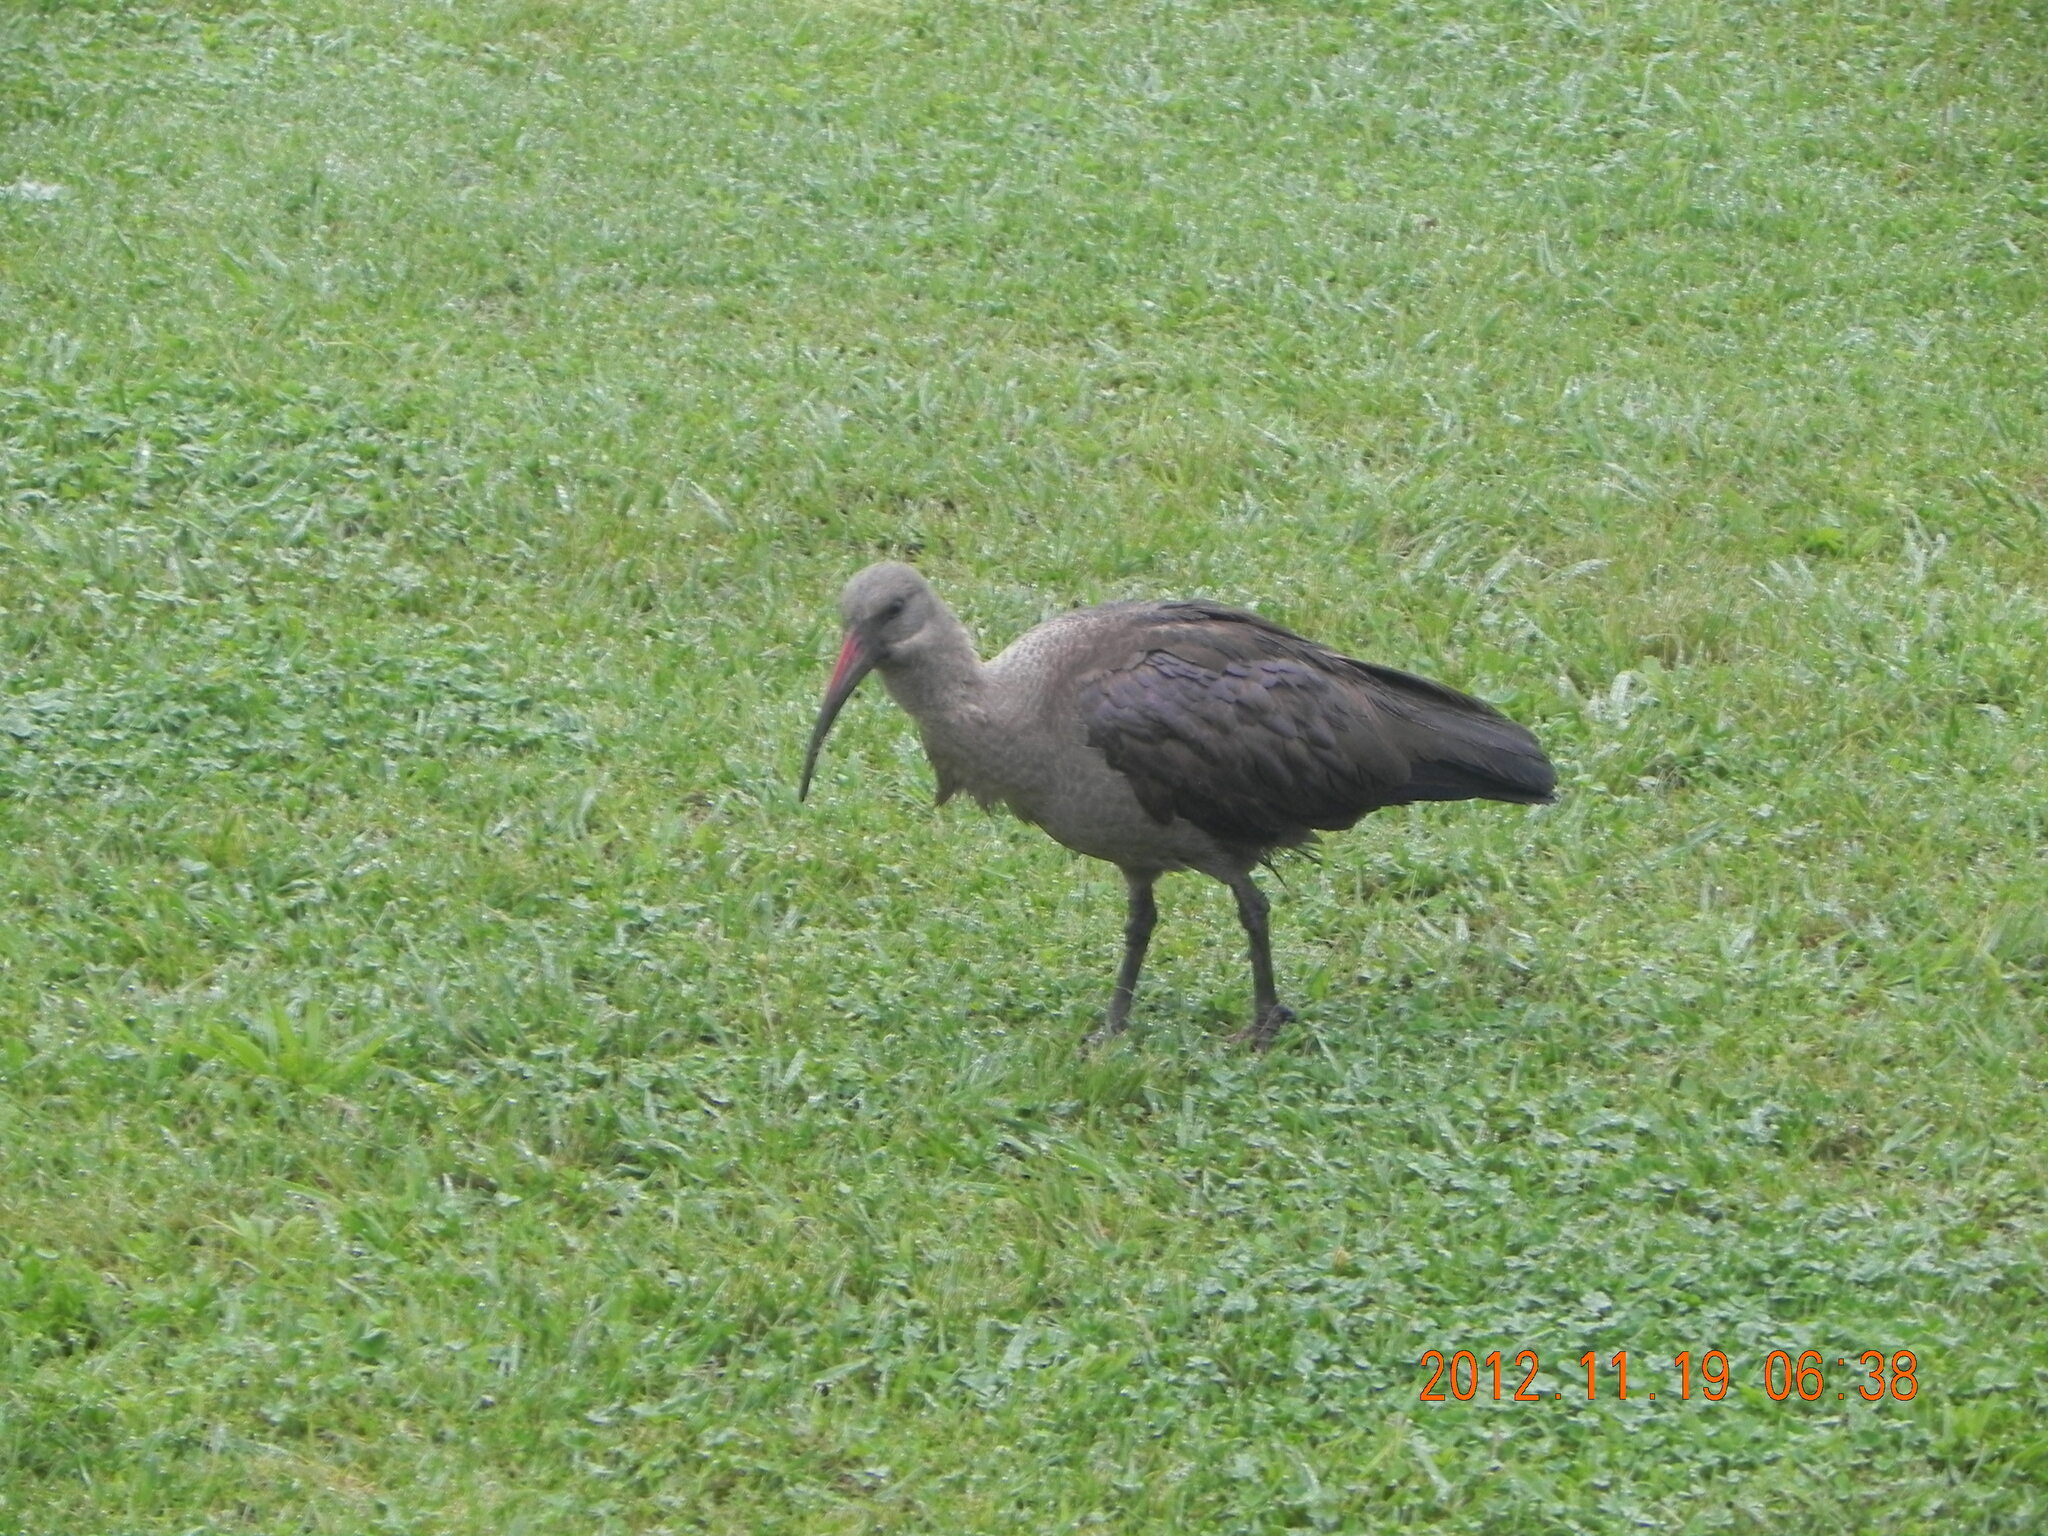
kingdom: Animalia
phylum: Chordata
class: Aves
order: Pelecaniformes
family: Threskiornithidae
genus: Bostrychia
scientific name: Bostrychia hagedash
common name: Hadada ibis
